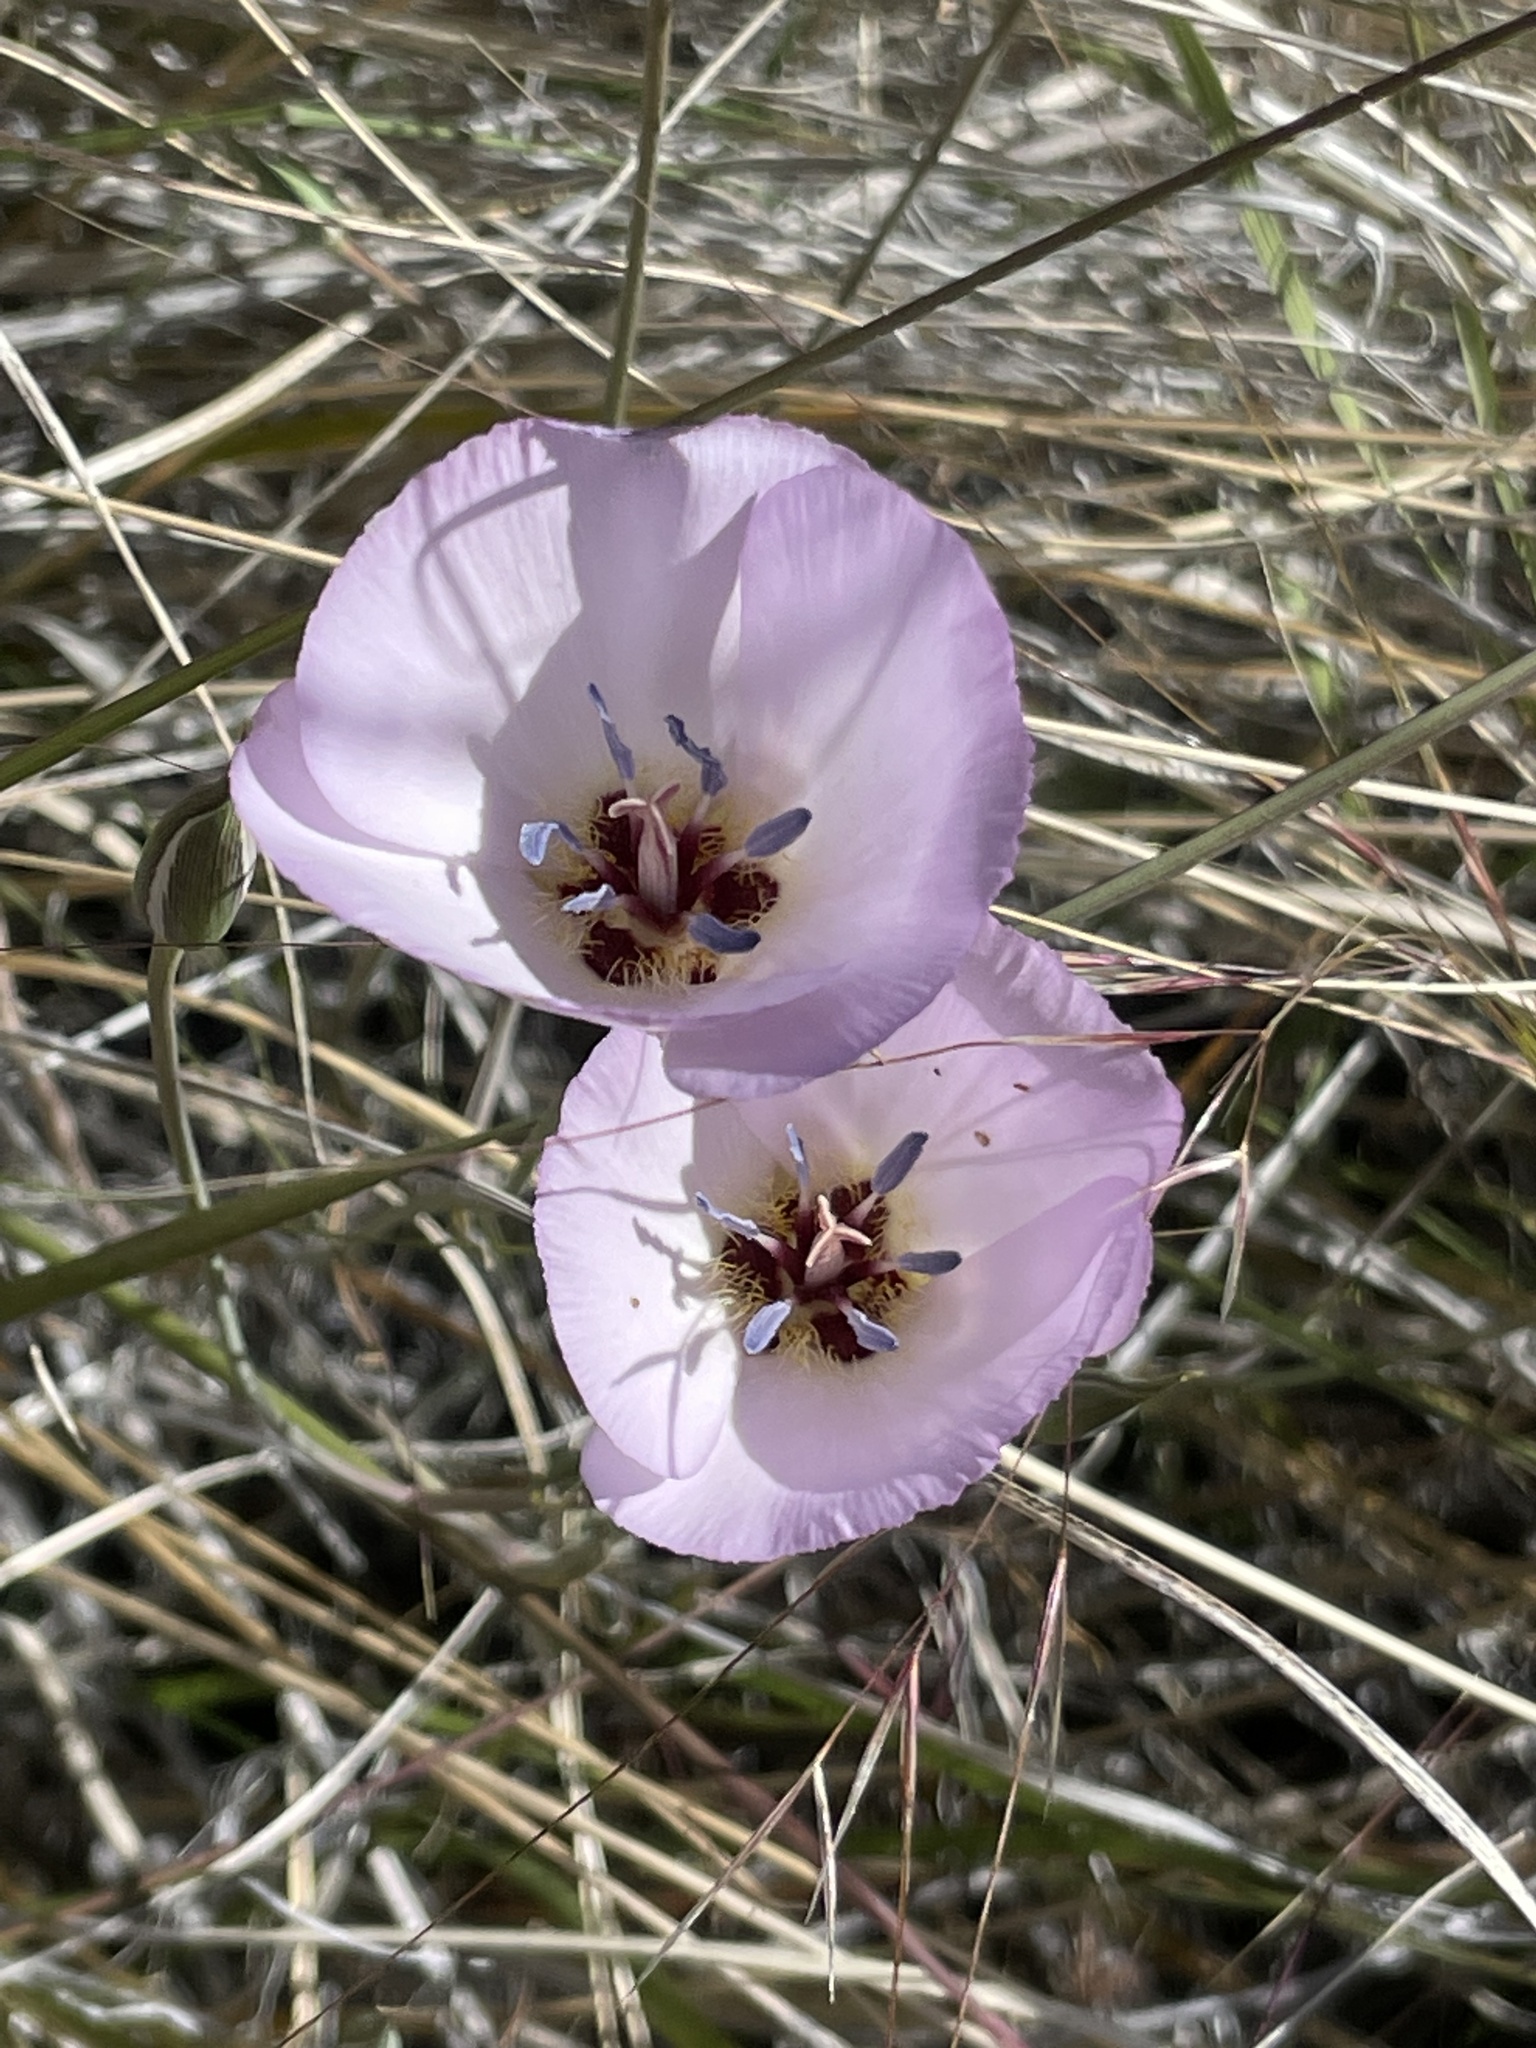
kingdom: Plantae
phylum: Tracheophyta
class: Liliopsida
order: Liliales
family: Liliaceae
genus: Calochortus
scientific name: Calochortus palmeri
